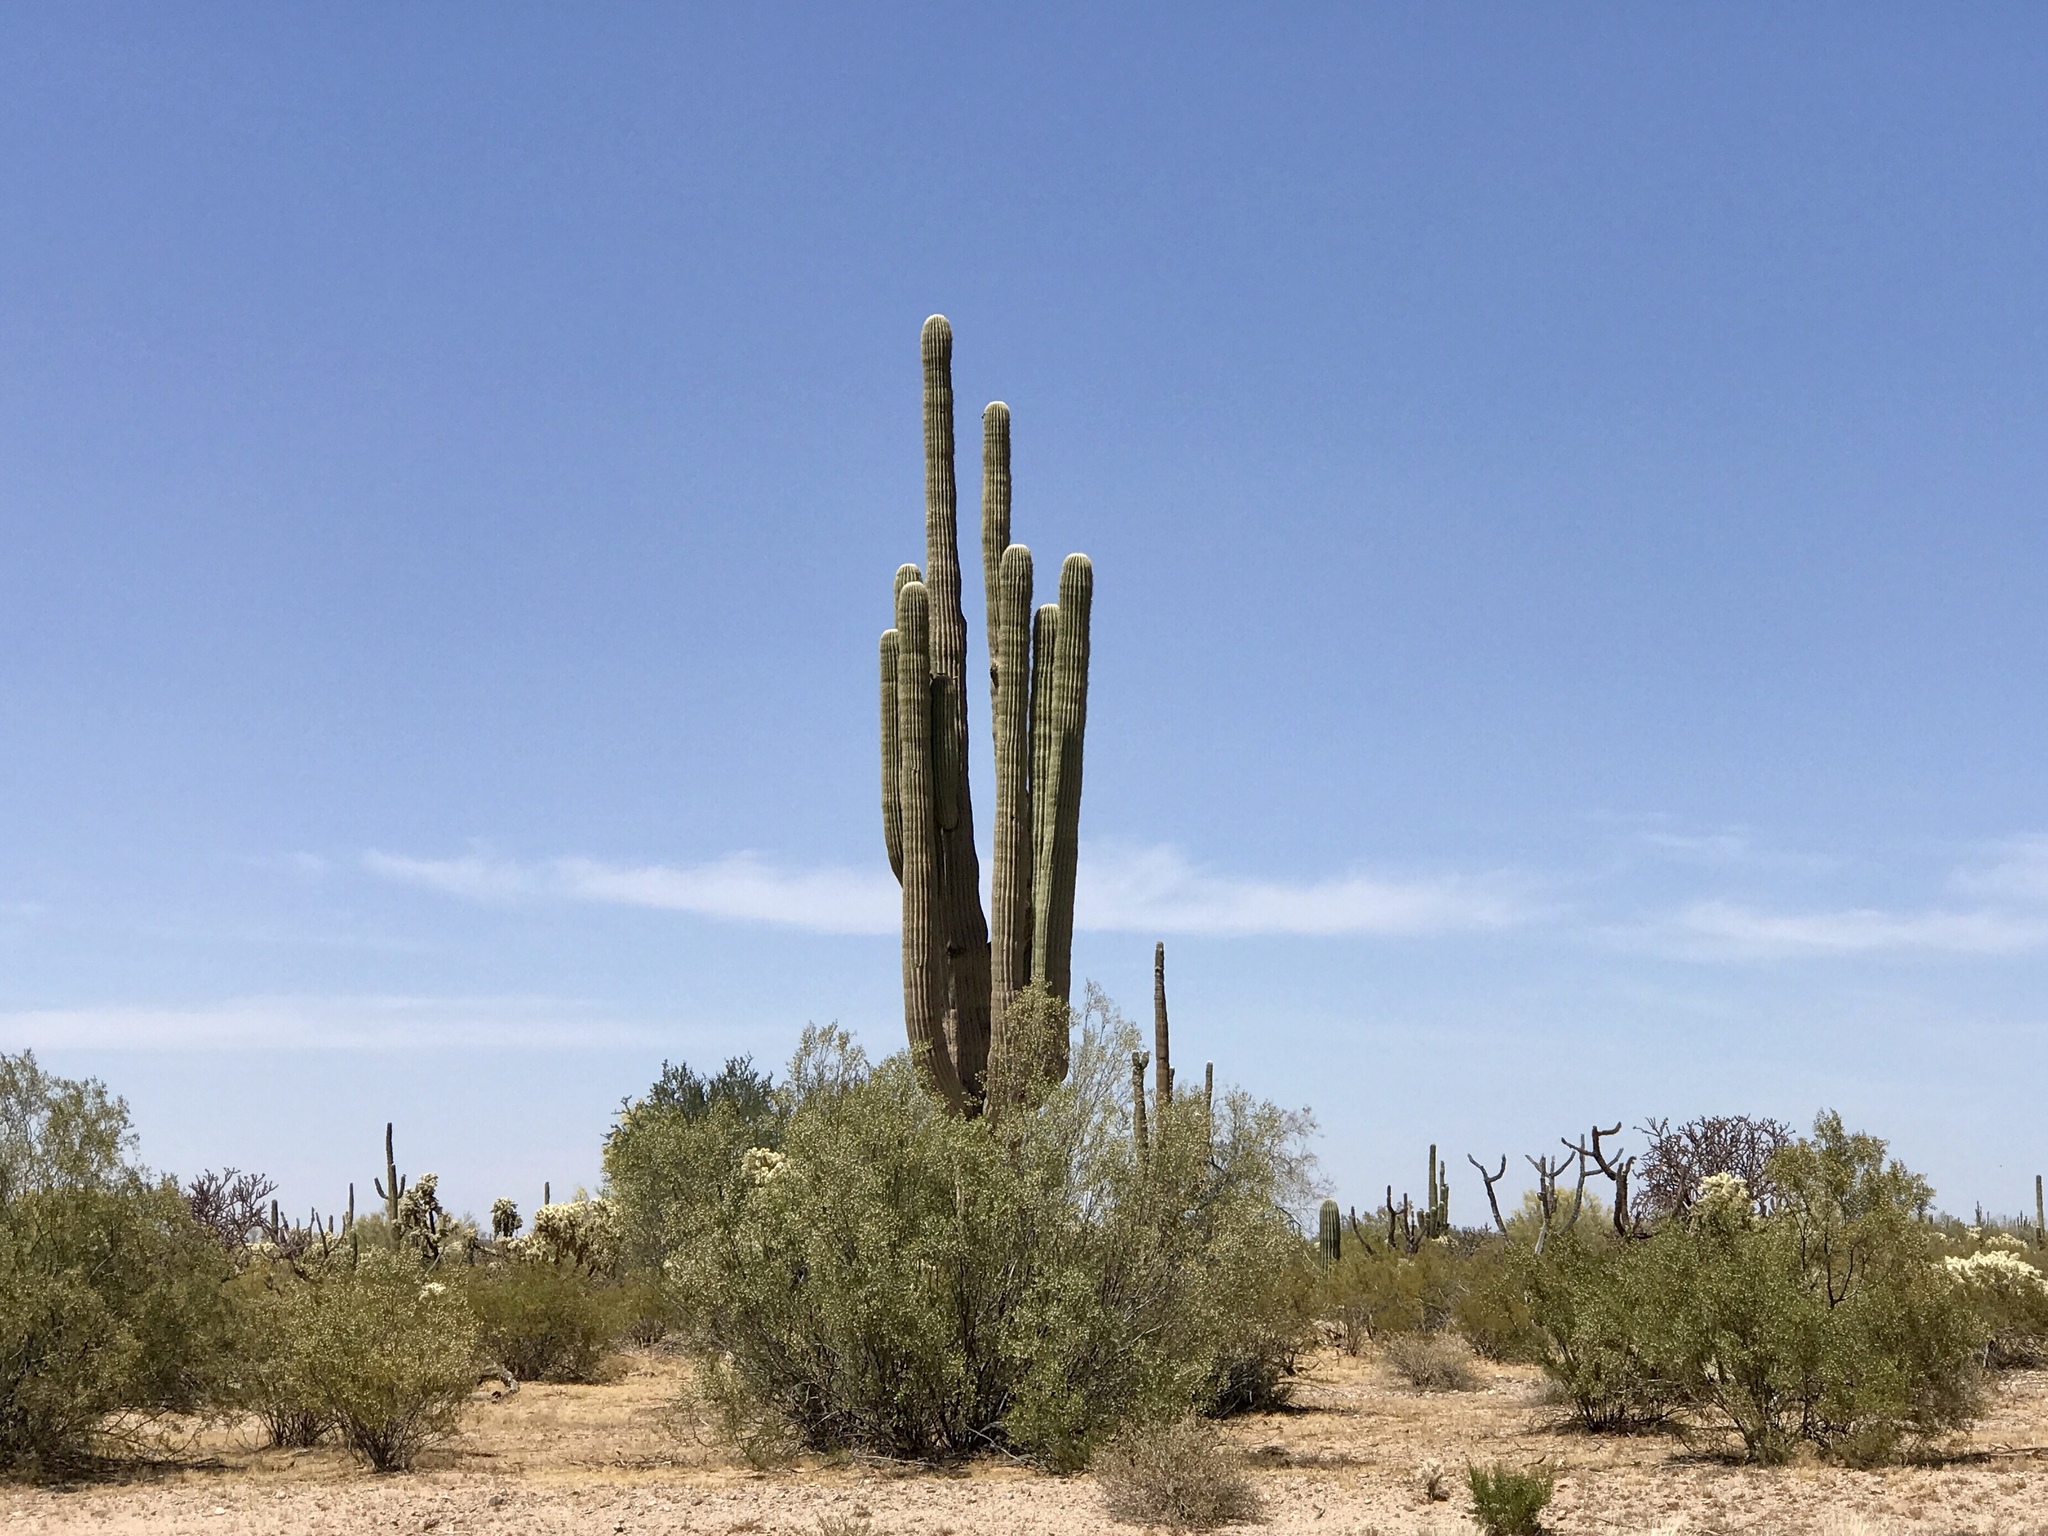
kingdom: Plantae
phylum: Tracheophyta
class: Magnoliopsida
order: Caryophyllales
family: Cactaceae
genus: Carnegiea
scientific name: Carnegiea gigantea
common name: Saguaro
